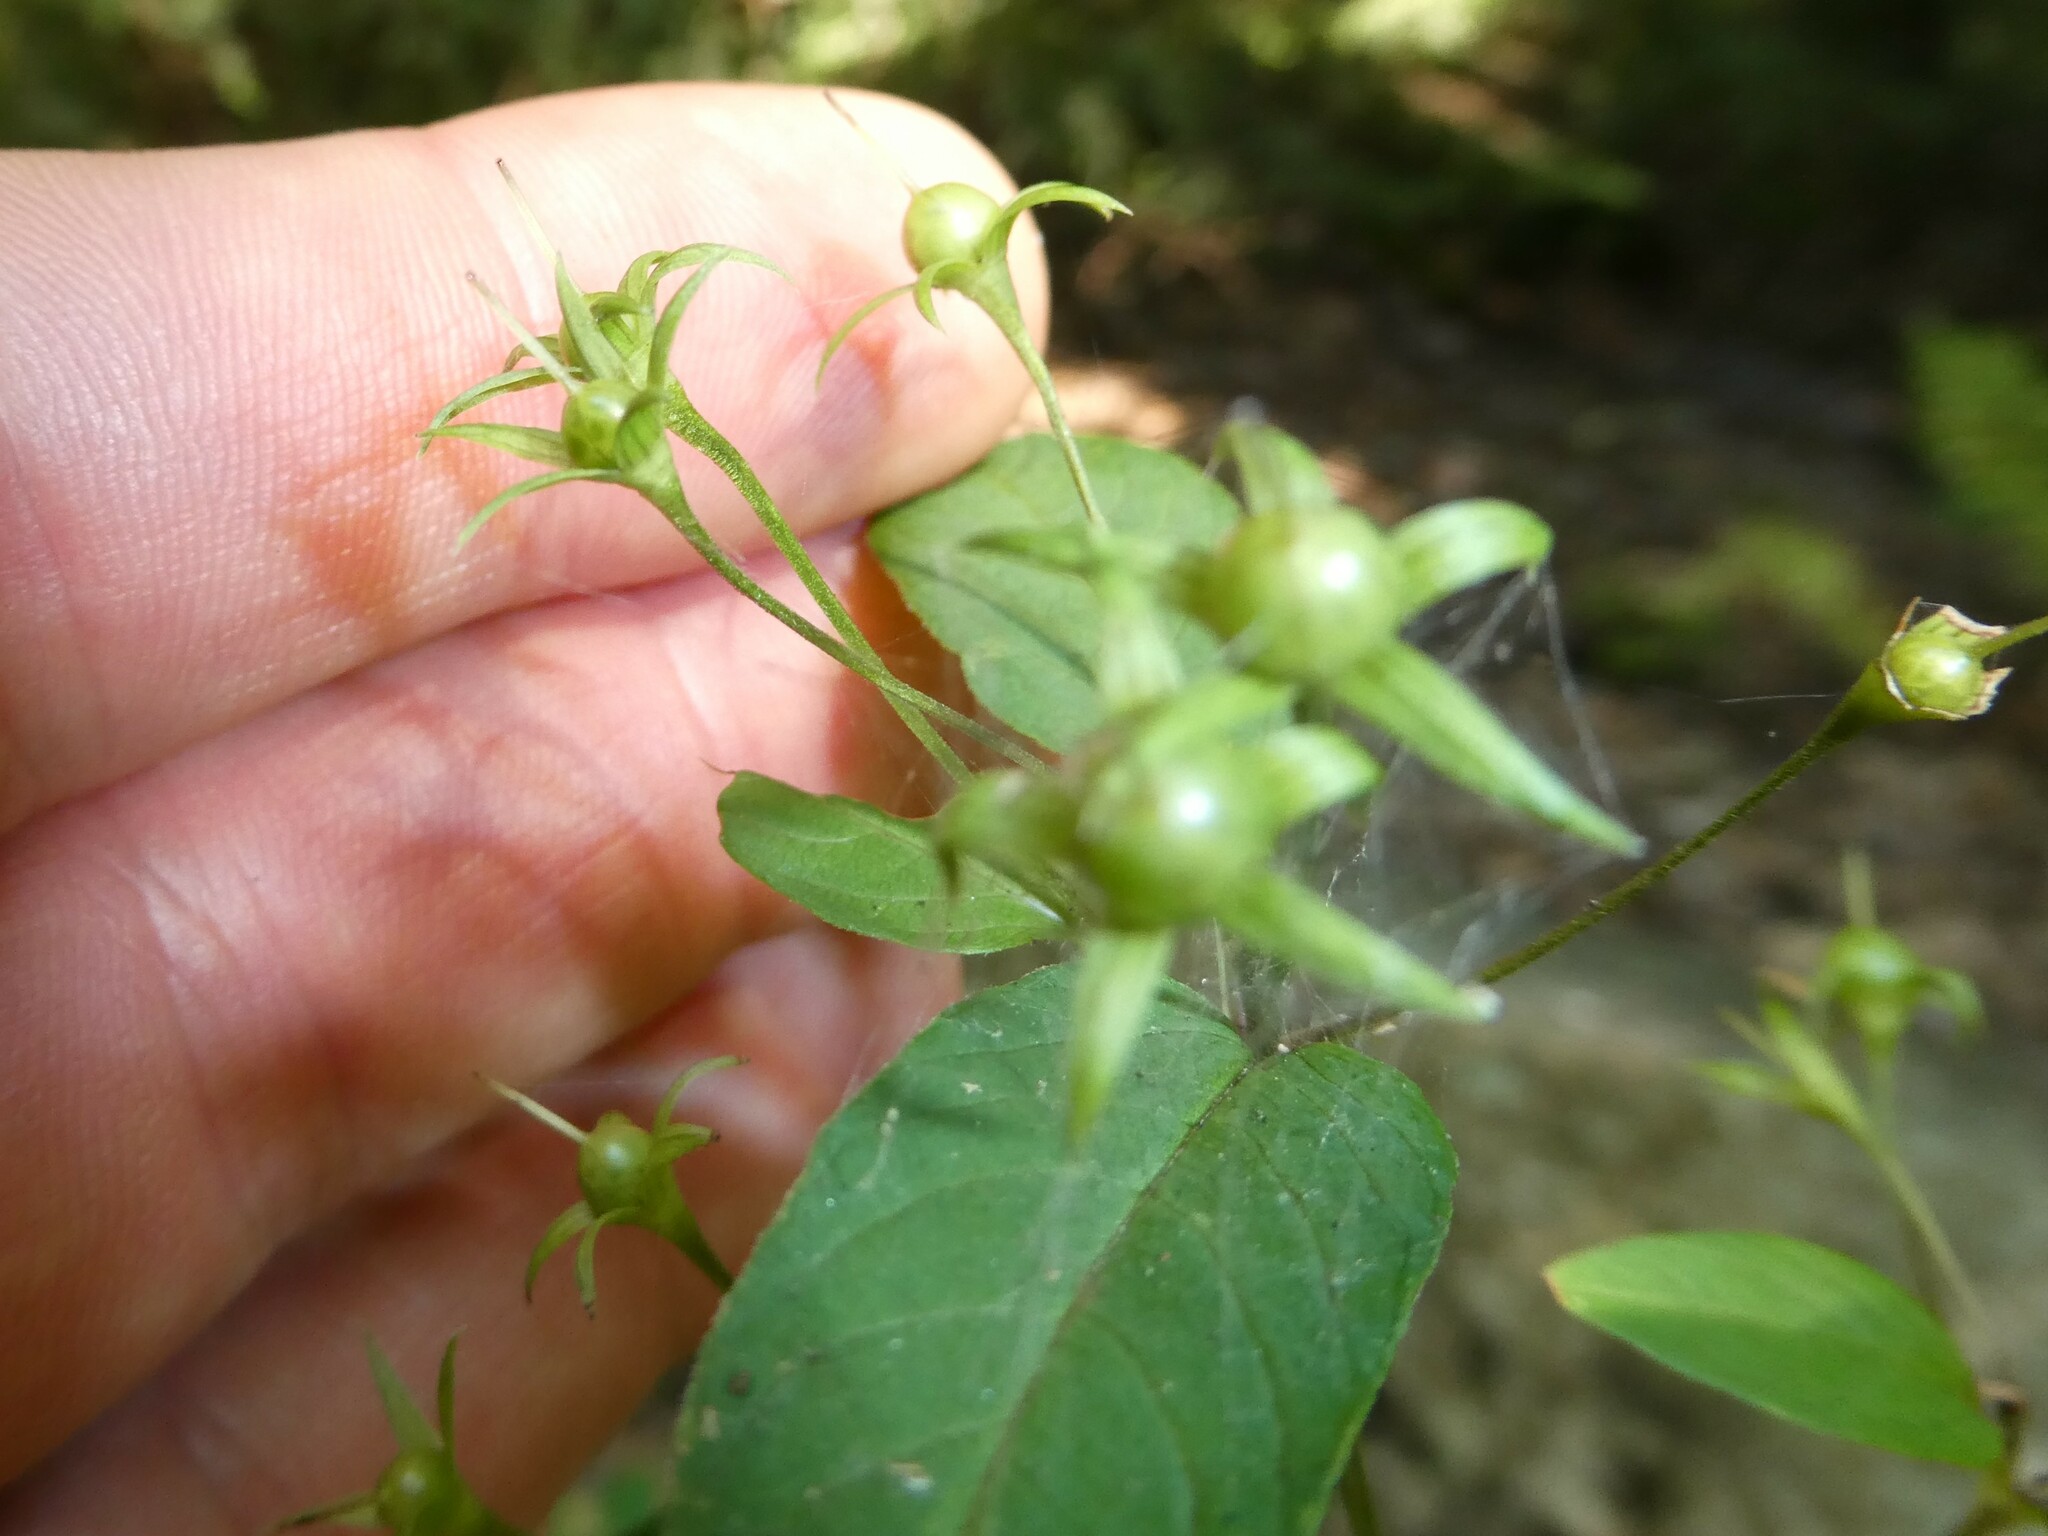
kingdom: Plantae
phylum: Tracheophyta
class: Magnoliopsida
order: Ericales
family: Primulaceae
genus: Lysimachia
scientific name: Lysimachia ciliata
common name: Fringed loosestrife
